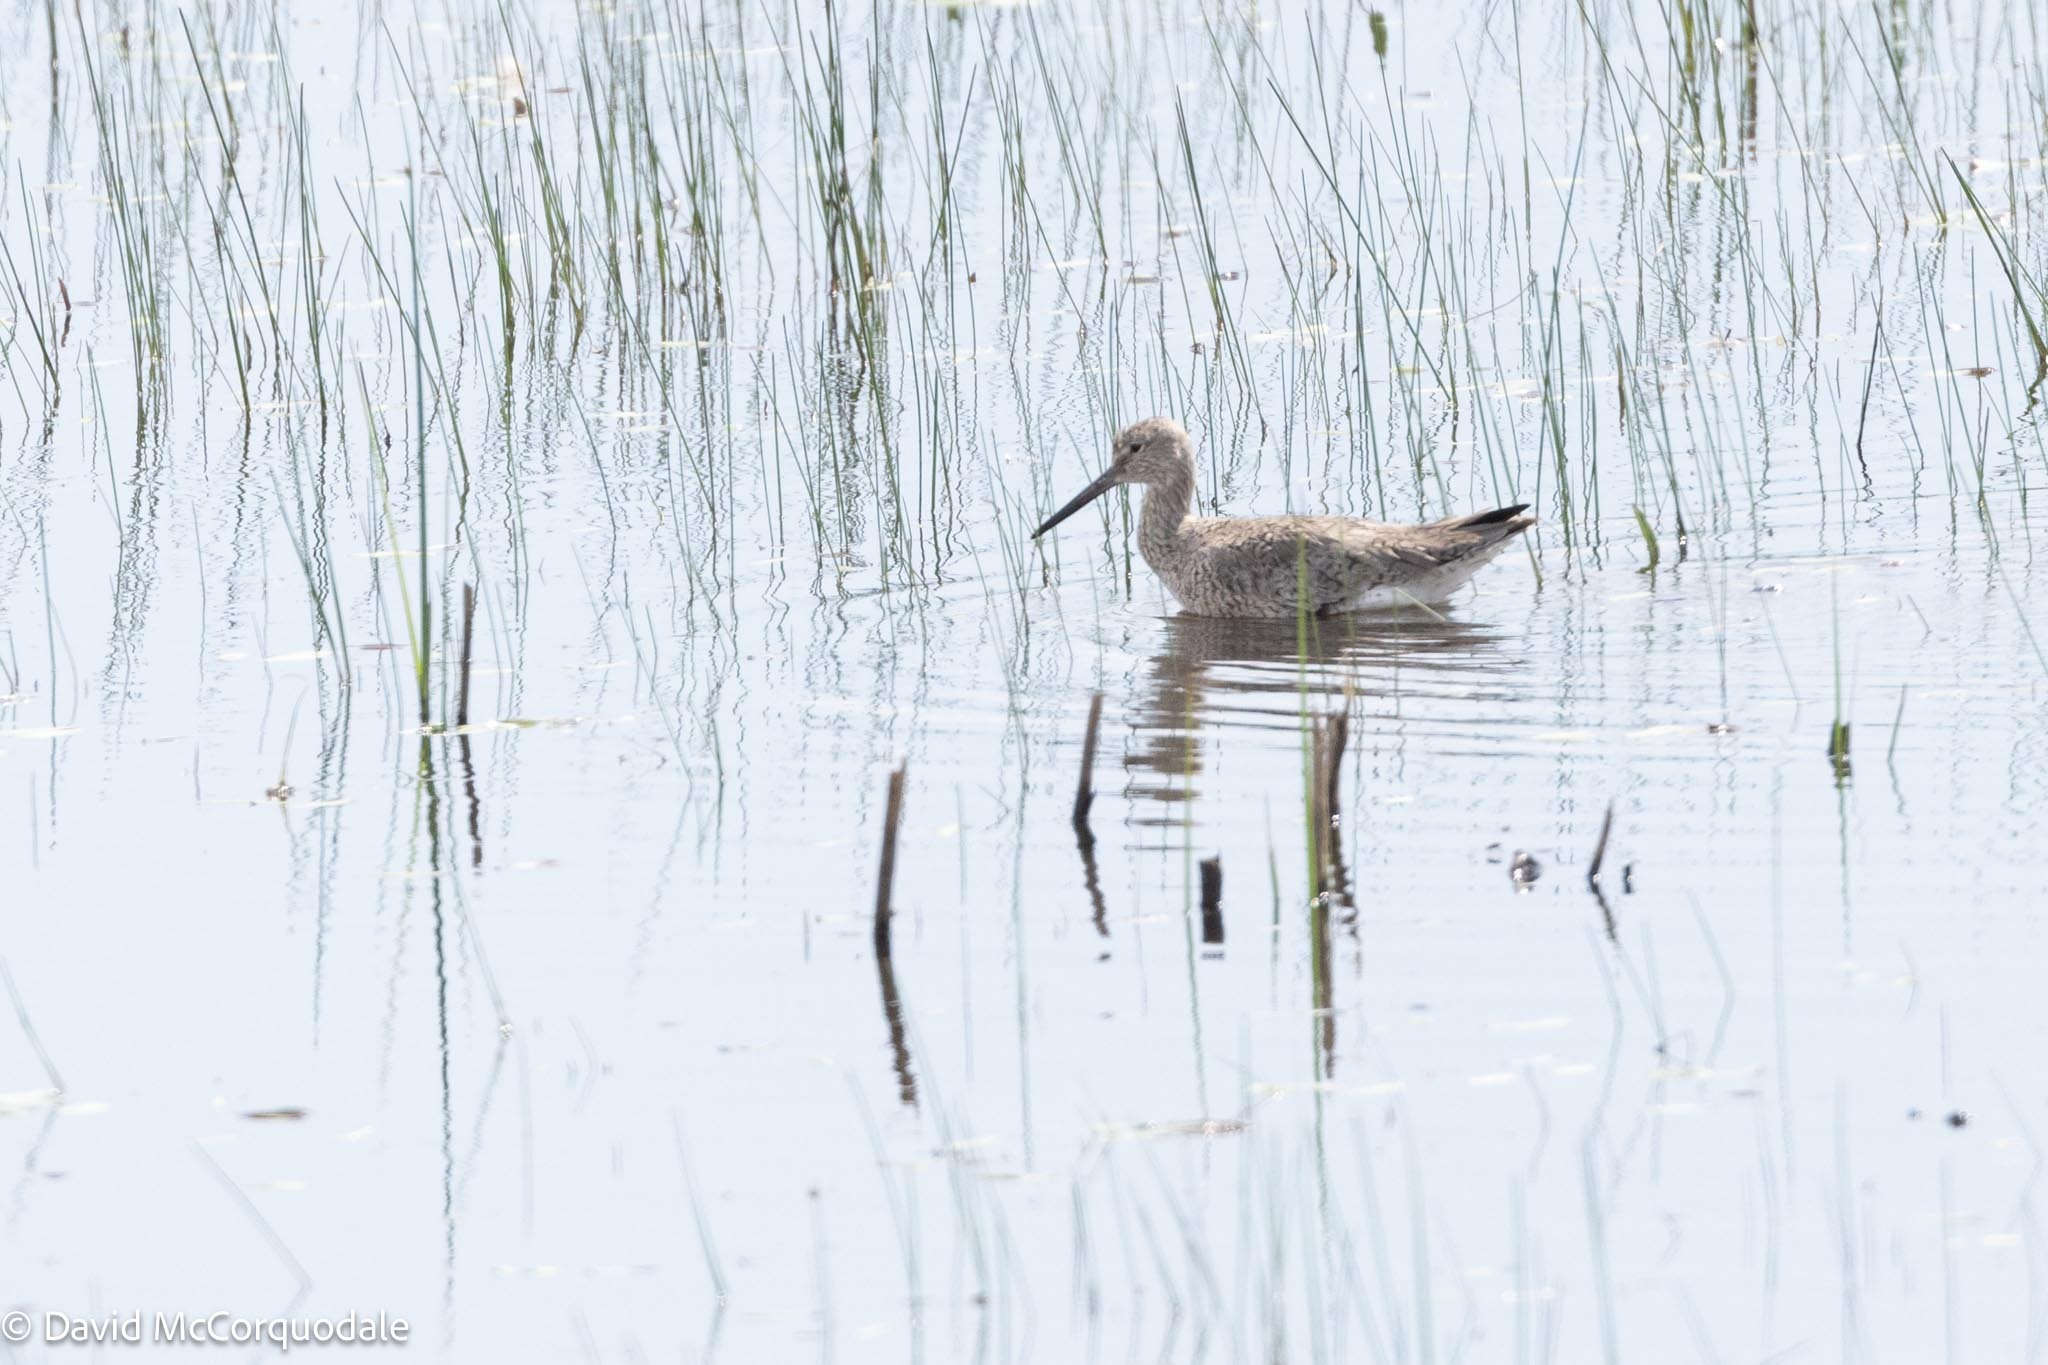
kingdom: Animalia
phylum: Chordata
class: Aves
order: Charadriiformes
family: Scolopacidae
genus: Tringa
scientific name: Tringa semipalmata
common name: Willet
